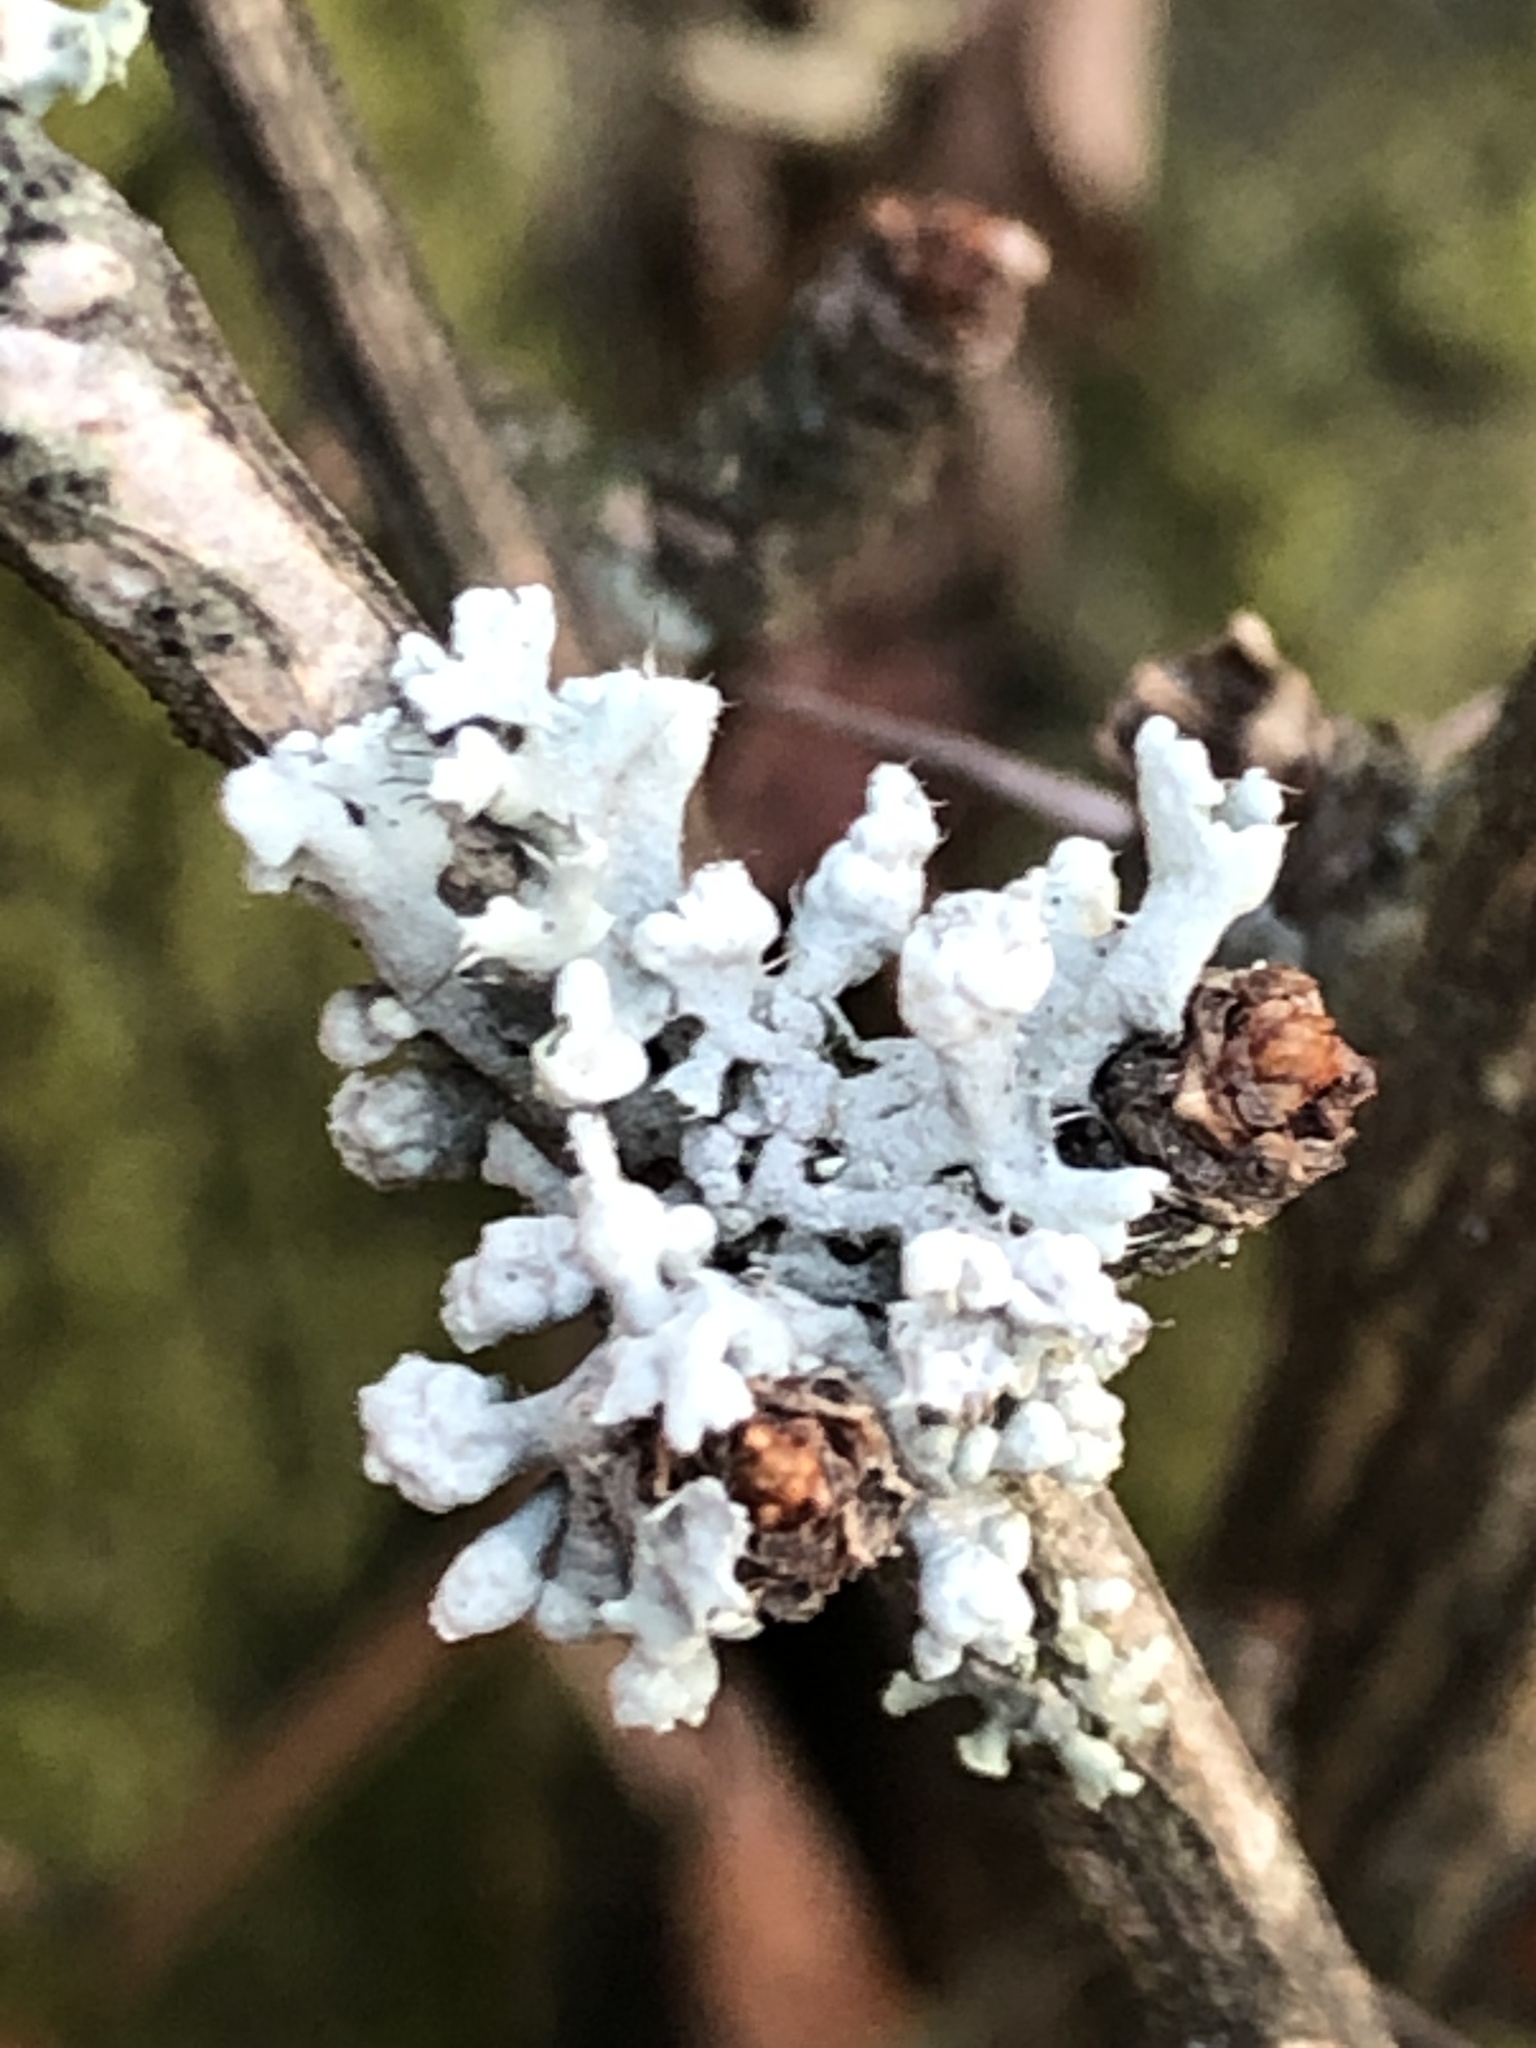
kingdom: Fungi
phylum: Ascomycota
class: Lecanoromycetes
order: Caliciales
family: Physciaceae
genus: Physcia
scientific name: Physcia adscendens
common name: Hooded rosette lichen
